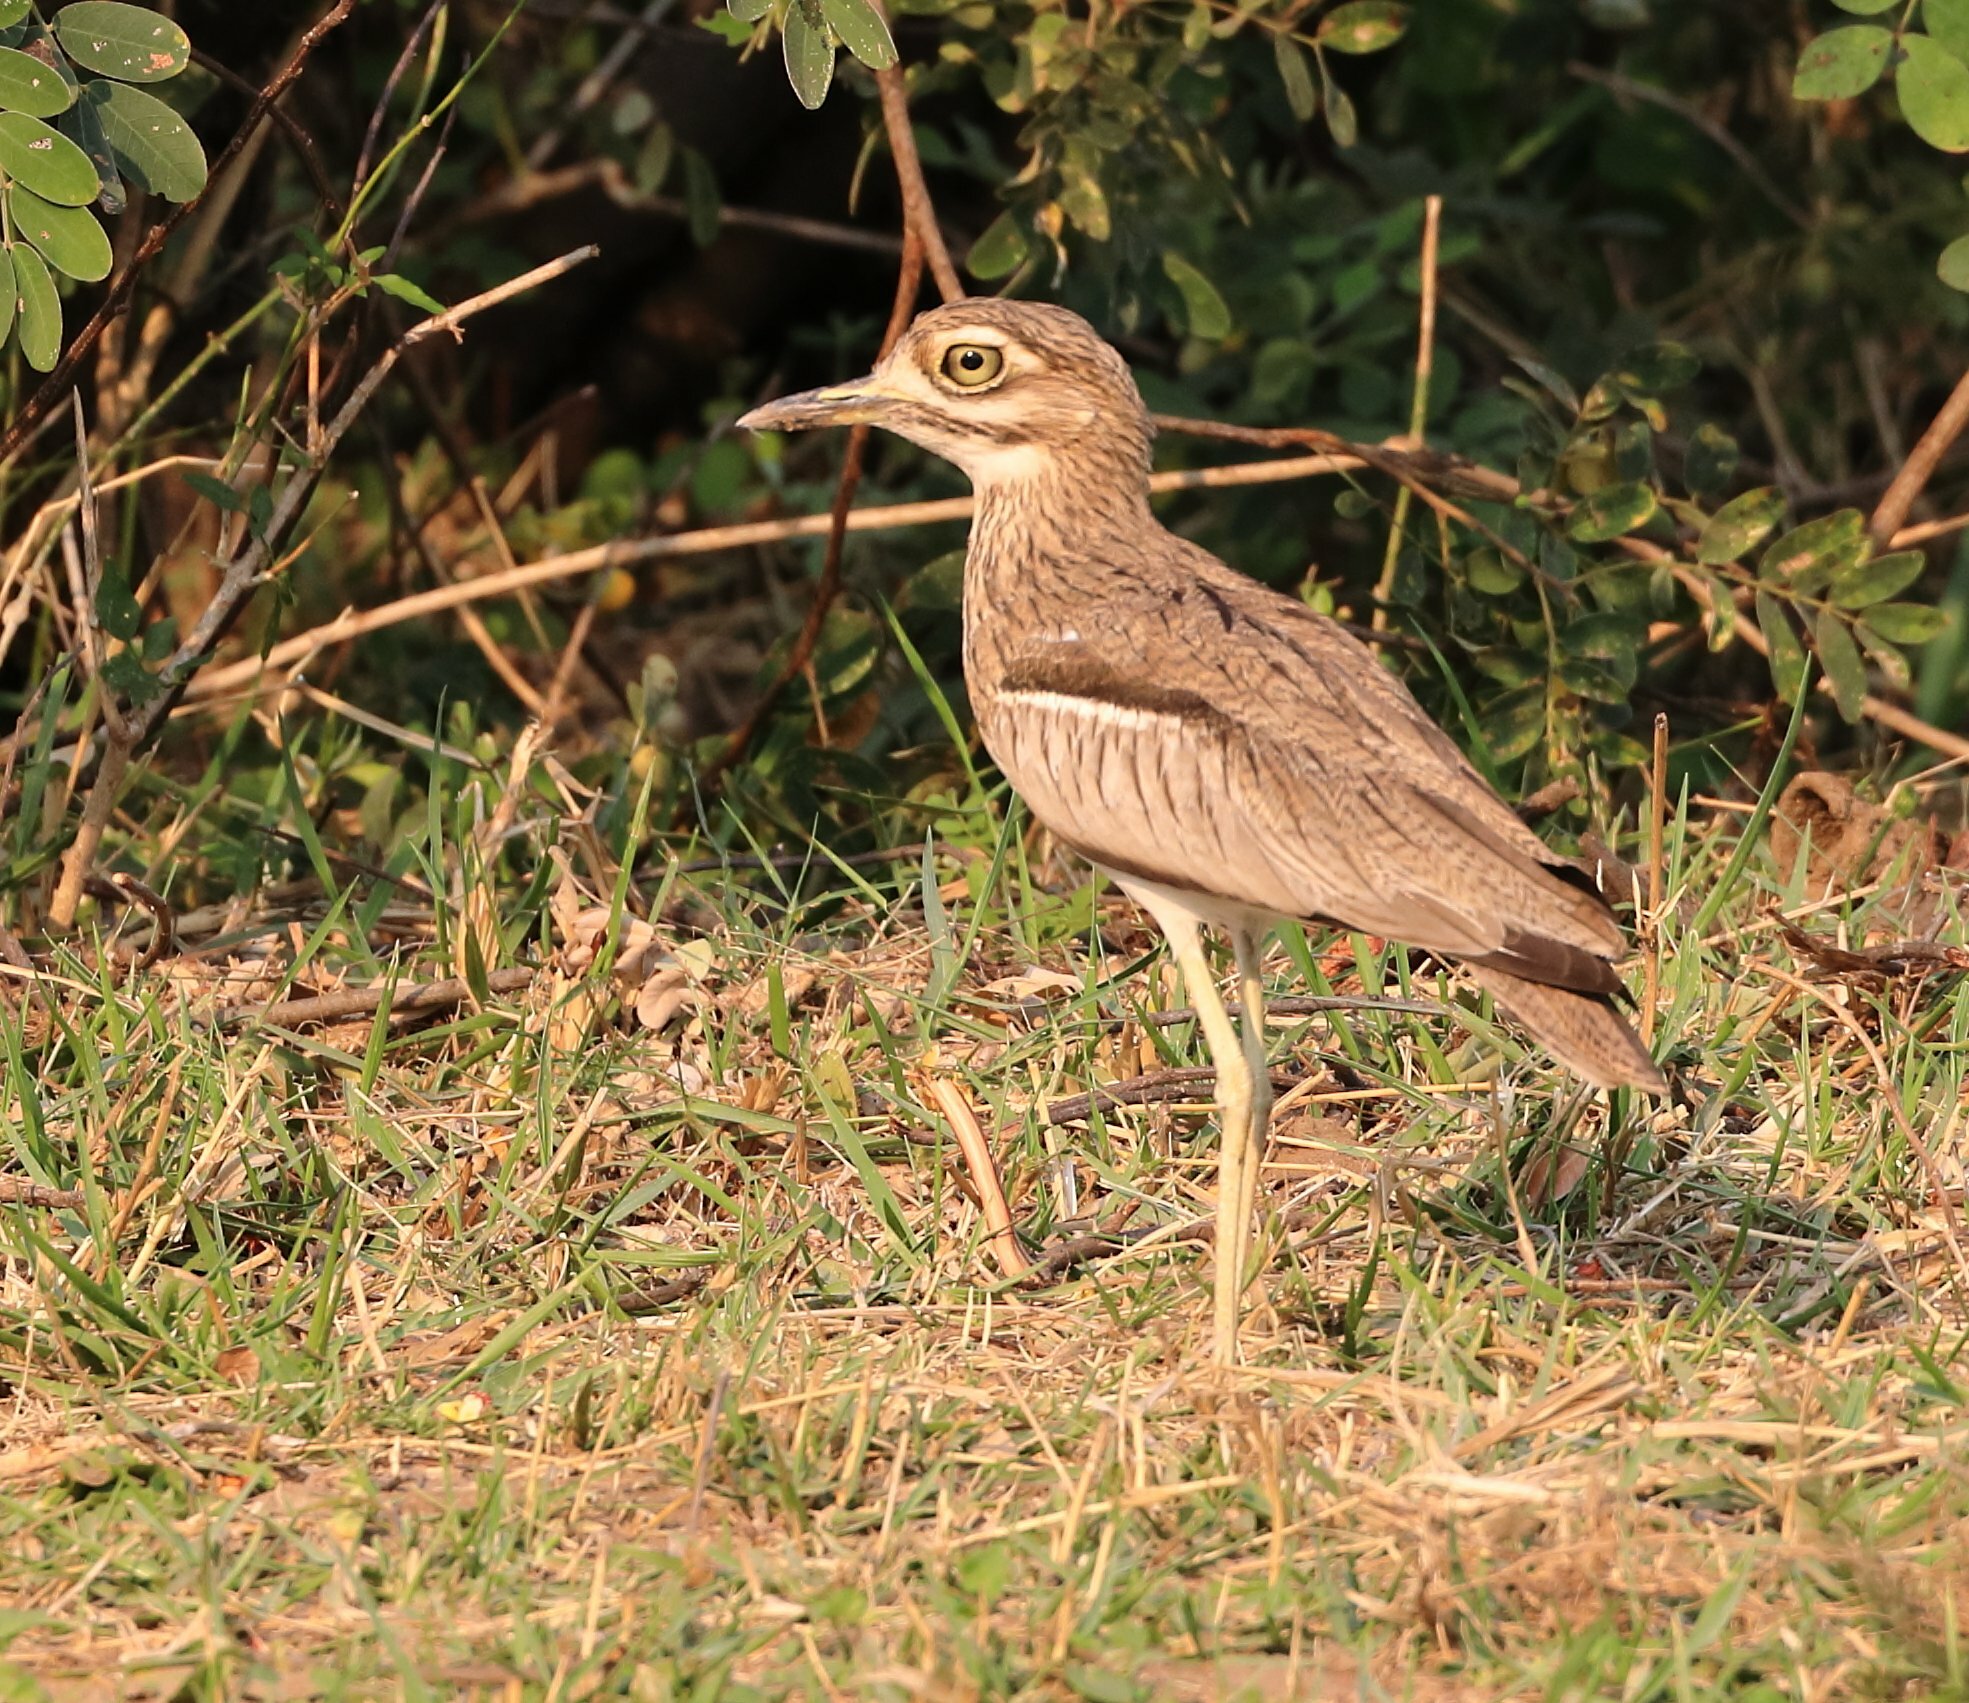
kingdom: Animalia
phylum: Chordata
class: Aves
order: Charadriiformes
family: Burhinidae
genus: Burhinus
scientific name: Burhinus vermiculatus
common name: Water thick-knee
